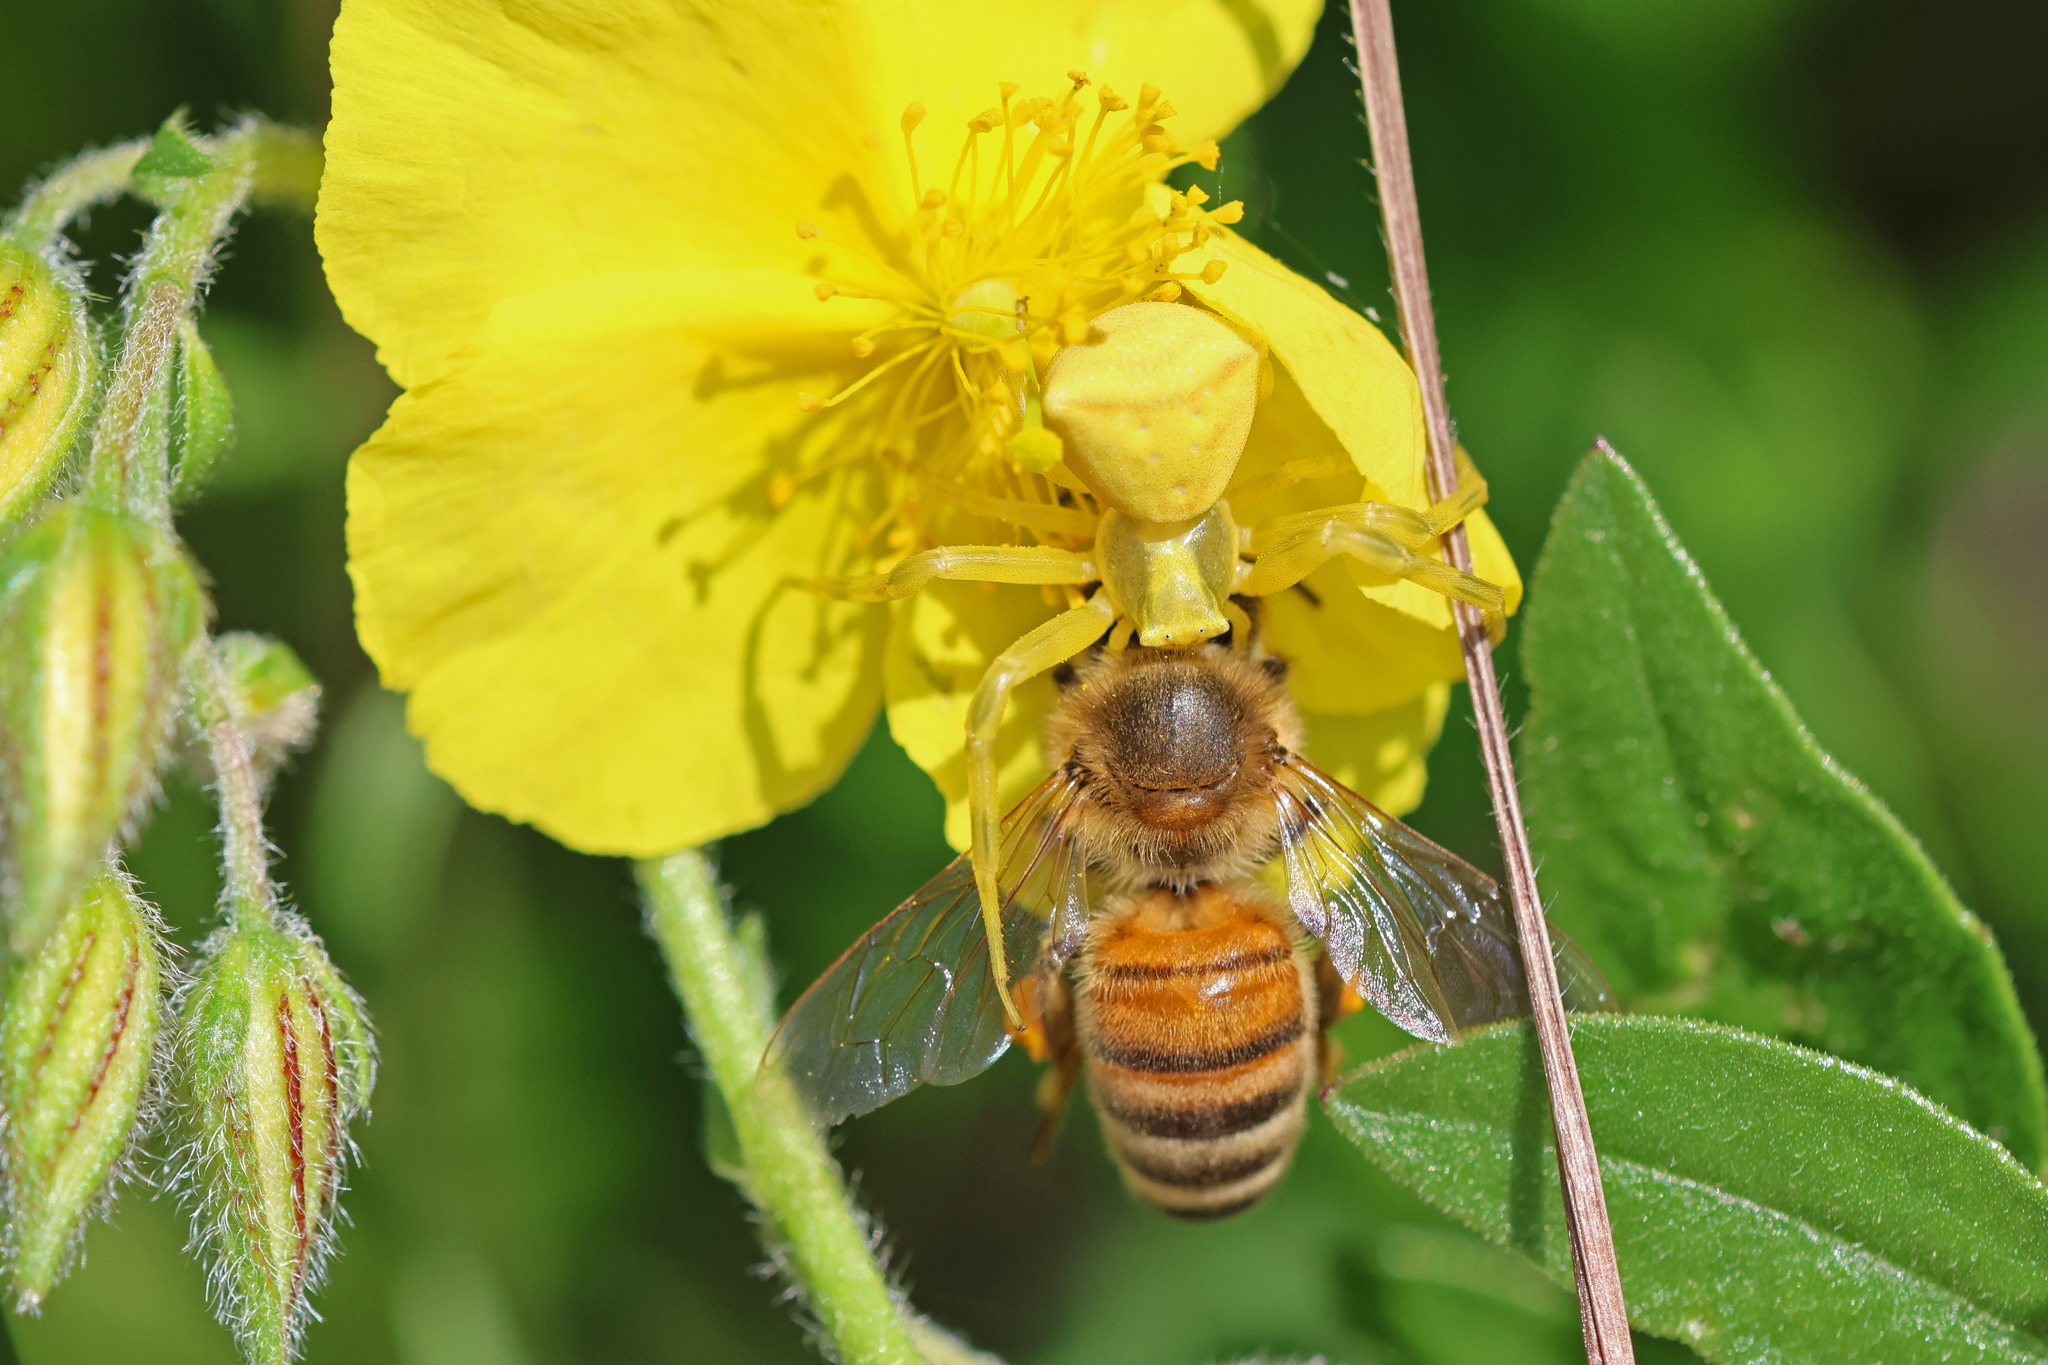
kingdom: Animalia
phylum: Arthropoda
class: Arachnida
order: Araneae
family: Thomisidae
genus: Thomisus
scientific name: Thomisus onustus
